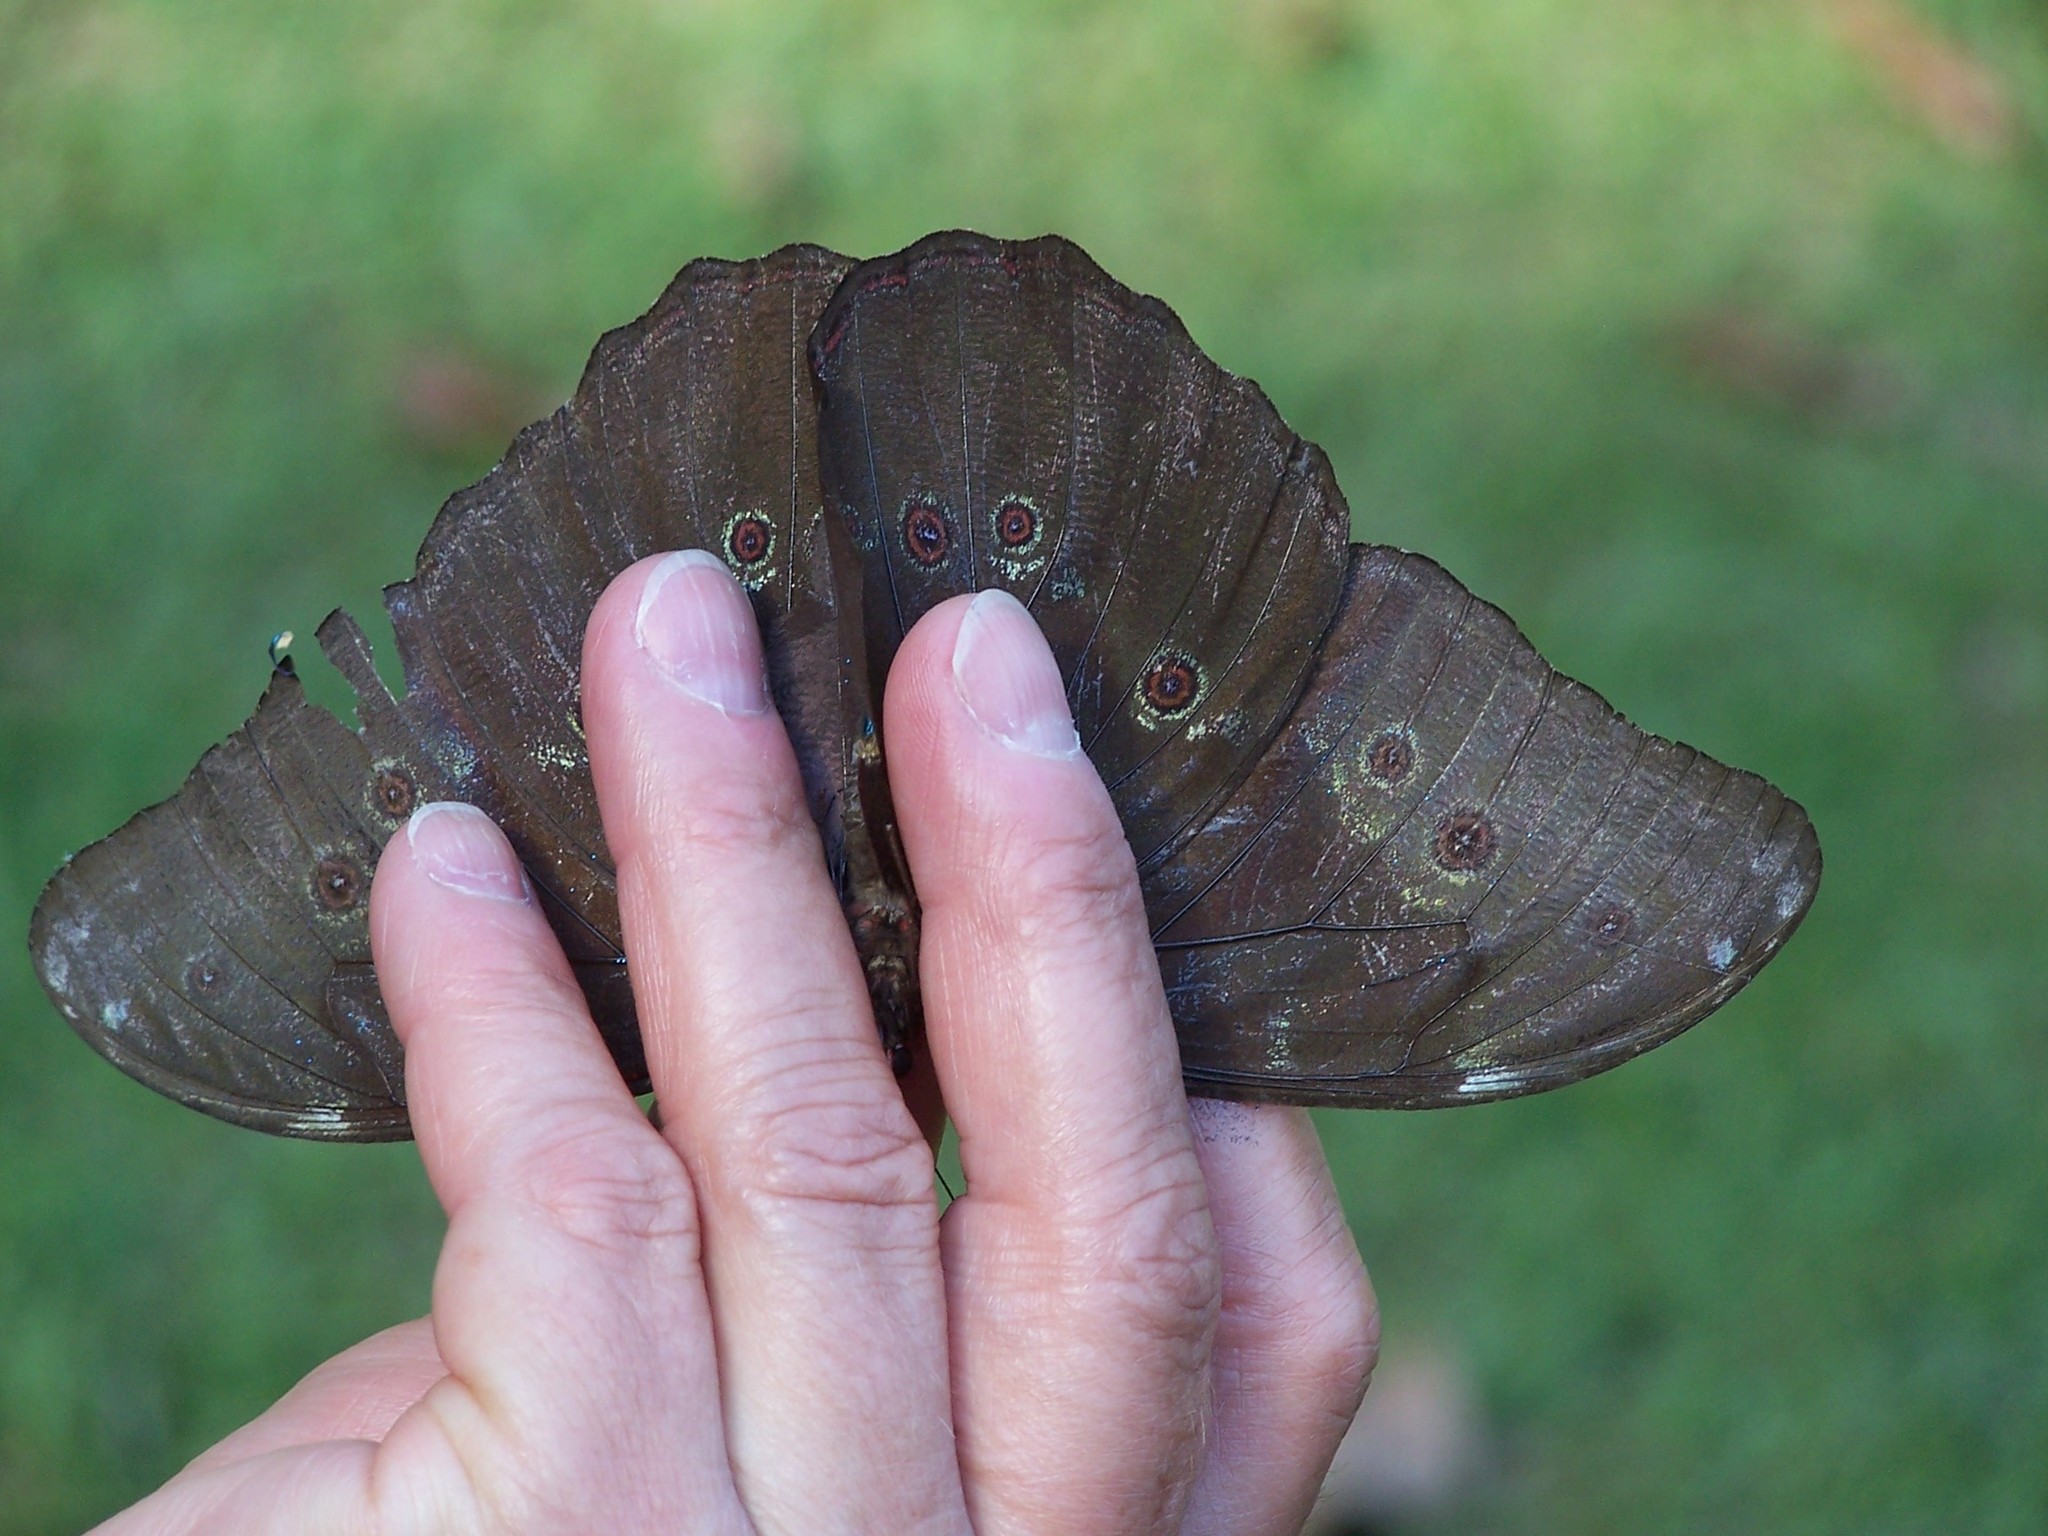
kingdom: Animalia
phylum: Arthropoda
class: Insecta
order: Lepidoptera
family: Nymphalidae
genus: Morpho
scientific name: Morpho menelaus
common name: Menelaus morpho
